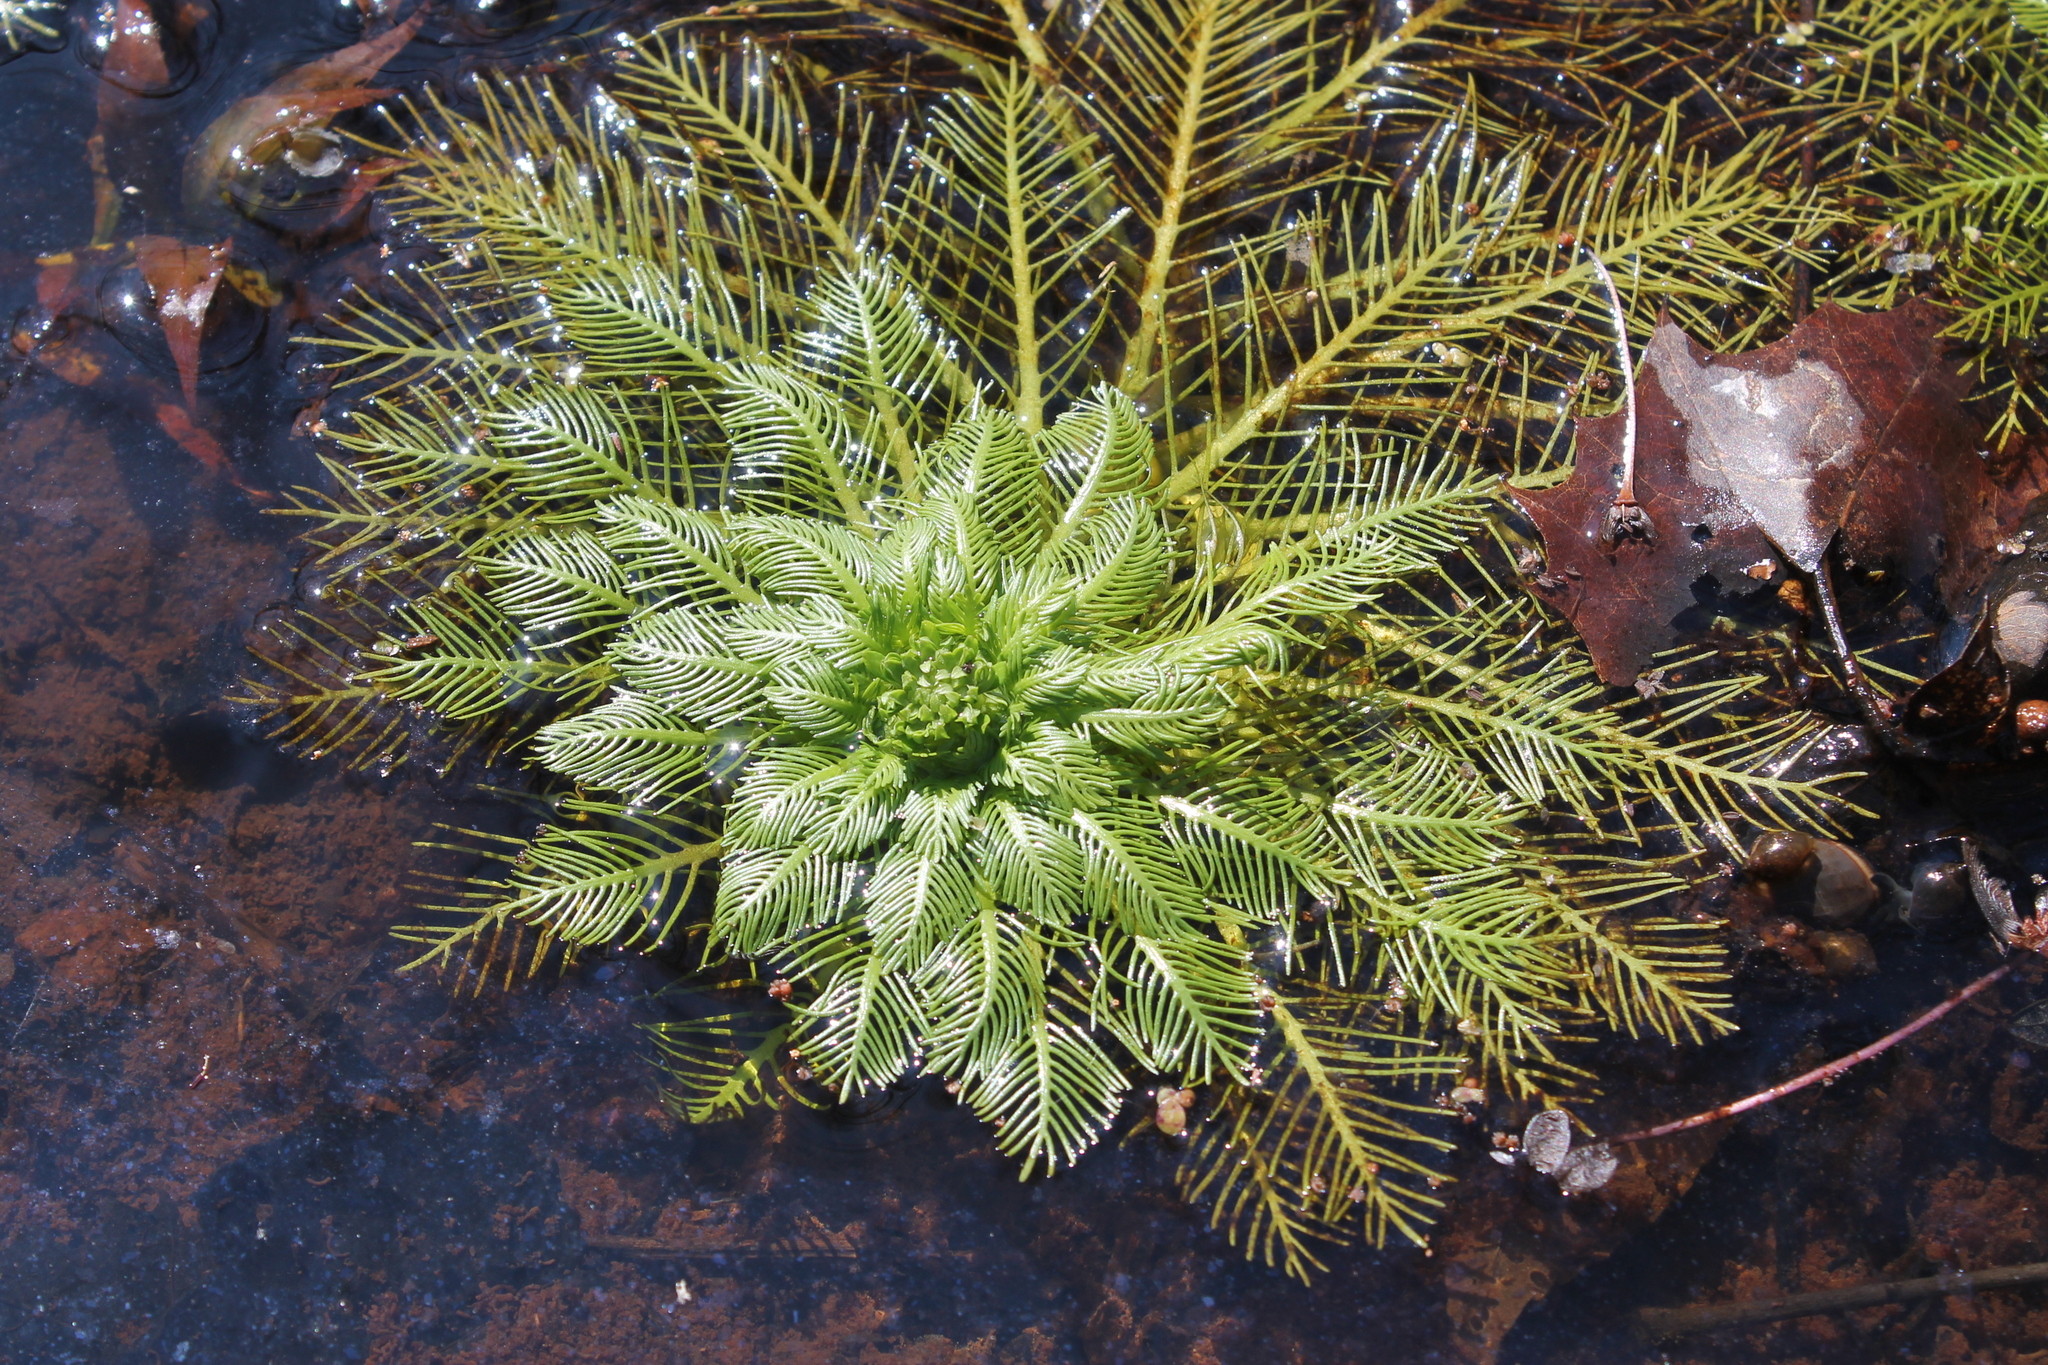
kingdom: Plantae
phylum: Tracheophyta
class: Magnoliopsida
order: Ericales
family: Primulaceae
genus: Hottonia
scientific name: Hottonia inflata
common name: American featherfoil
